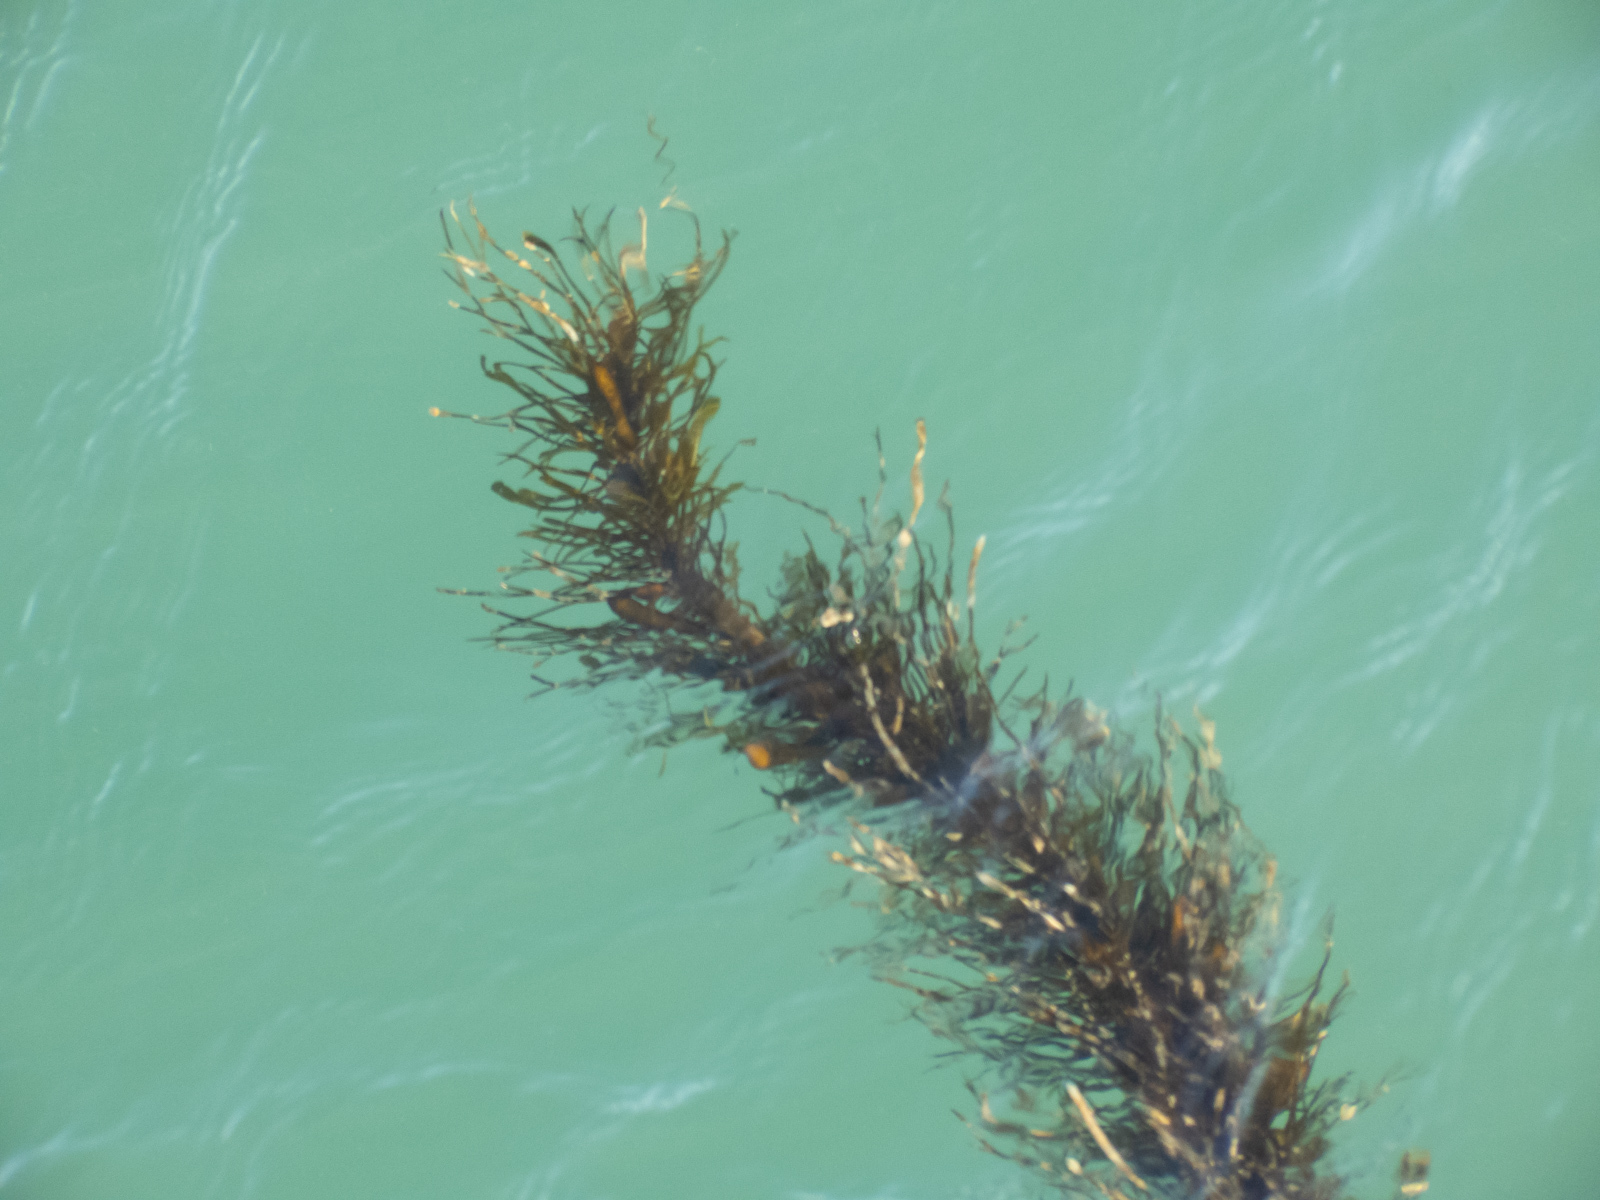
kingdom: Chromista
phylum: Ochrophyta
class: Phaeophyceae
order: Laminariales
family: Lessoniaceae
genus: Egregia
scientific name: Egregia menziesii
